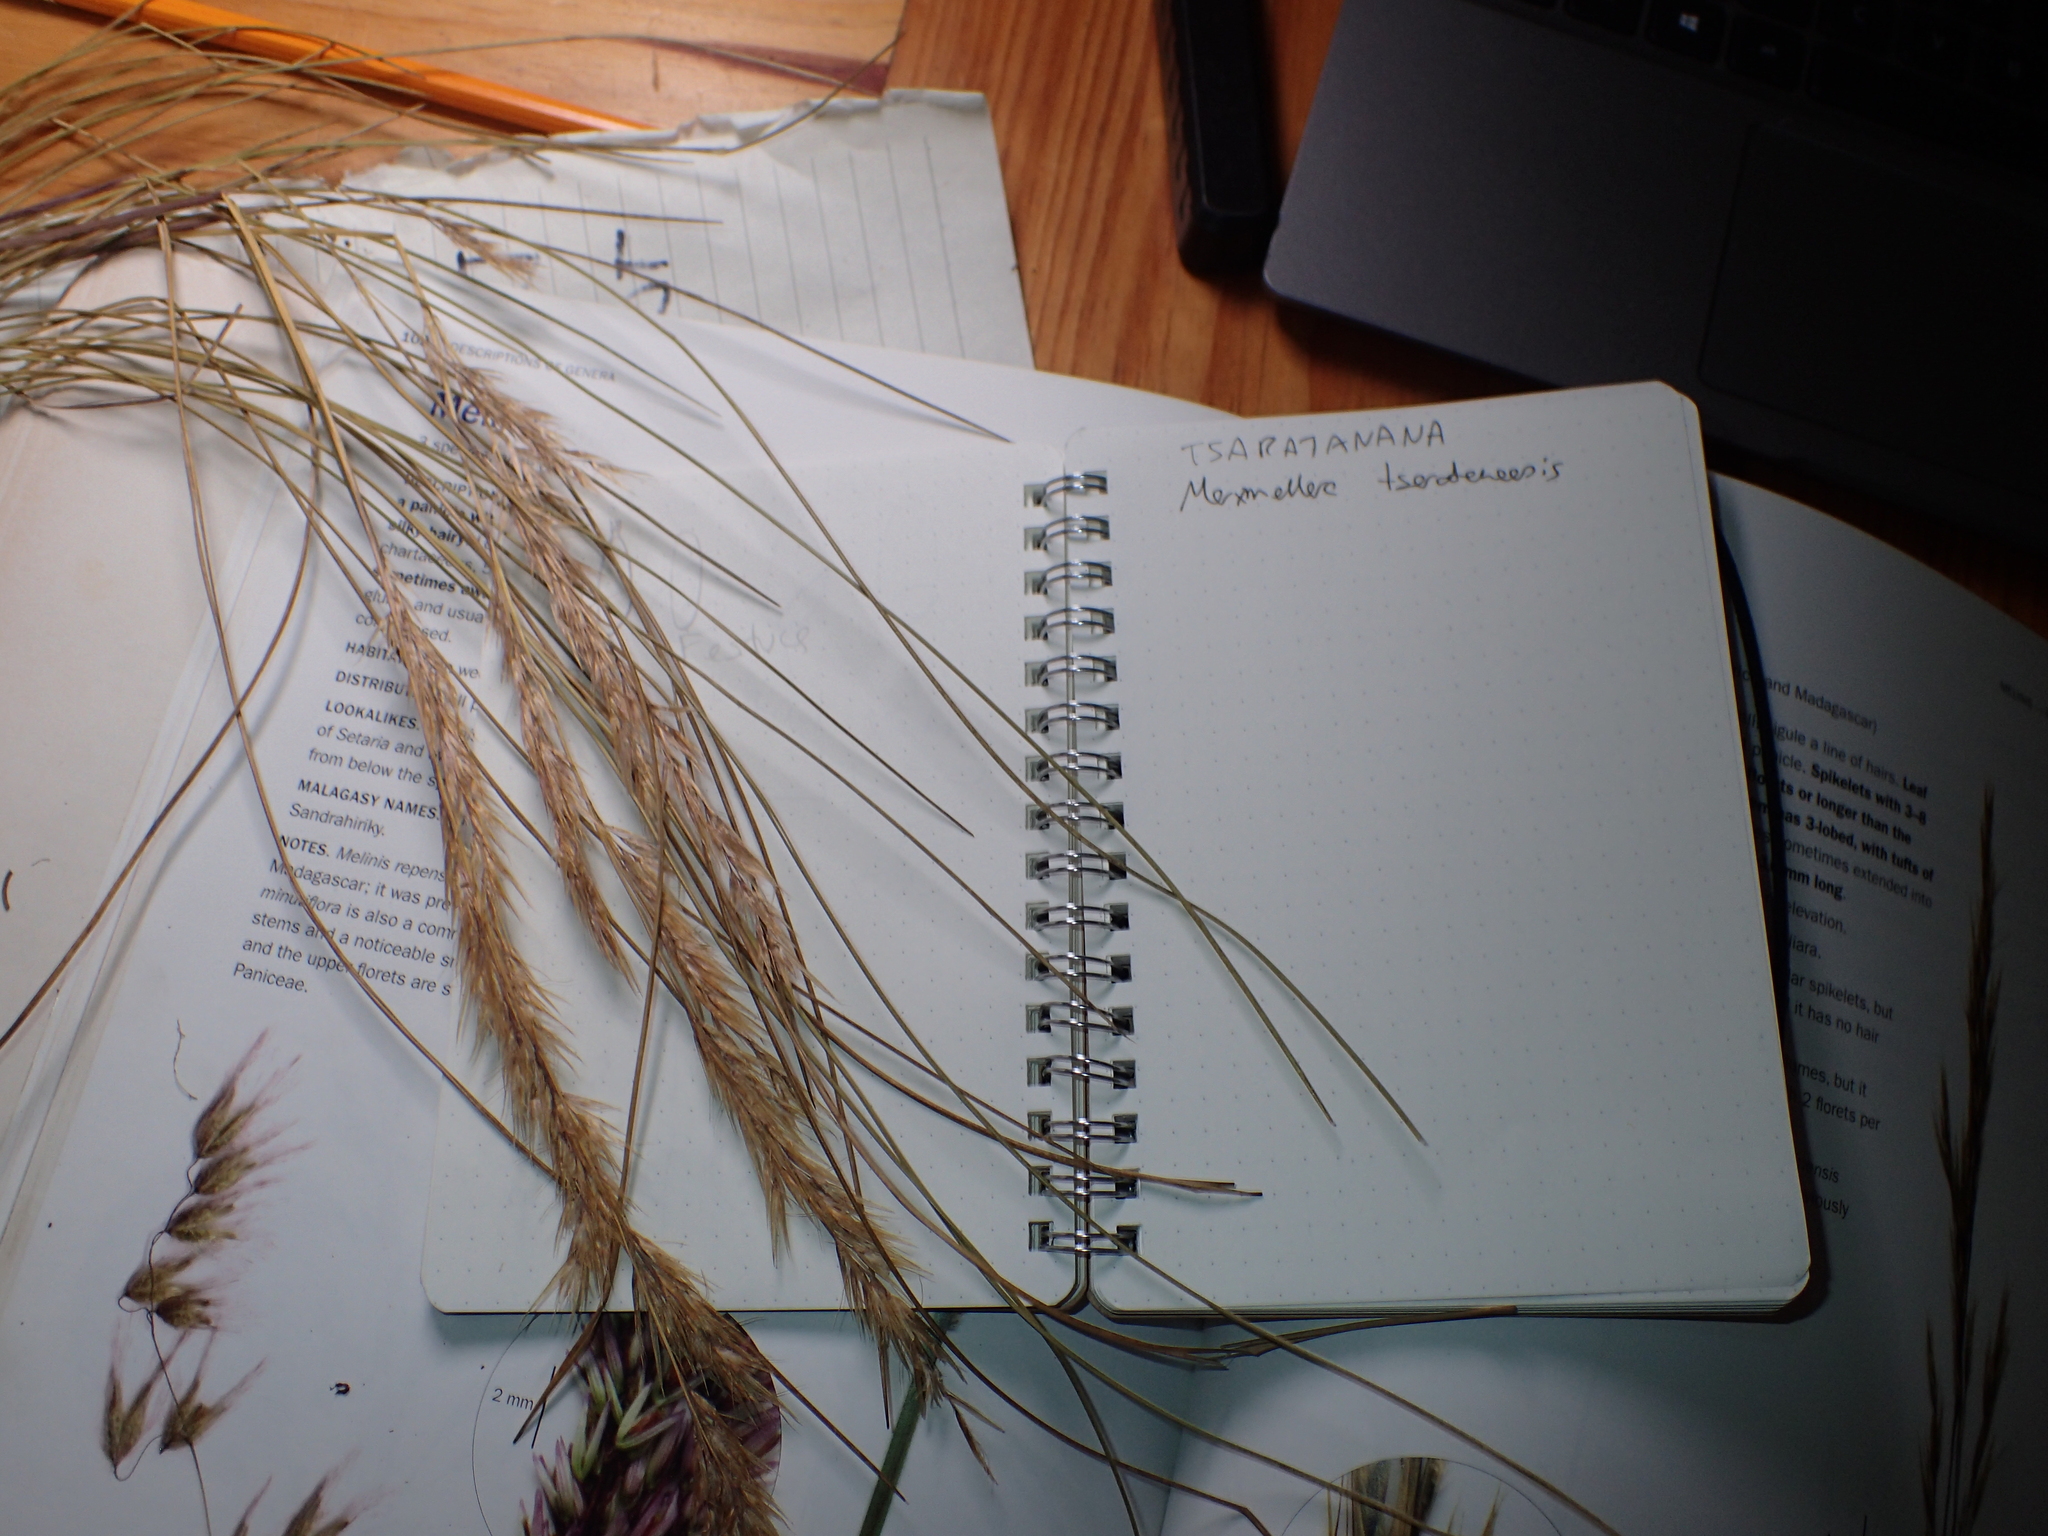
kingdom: Plantae
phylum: Tracheophyta
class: Liliopsida
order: Poales
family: Poaceae
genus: Merxmuellera
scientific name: Merxmuellera tsaratananensis
